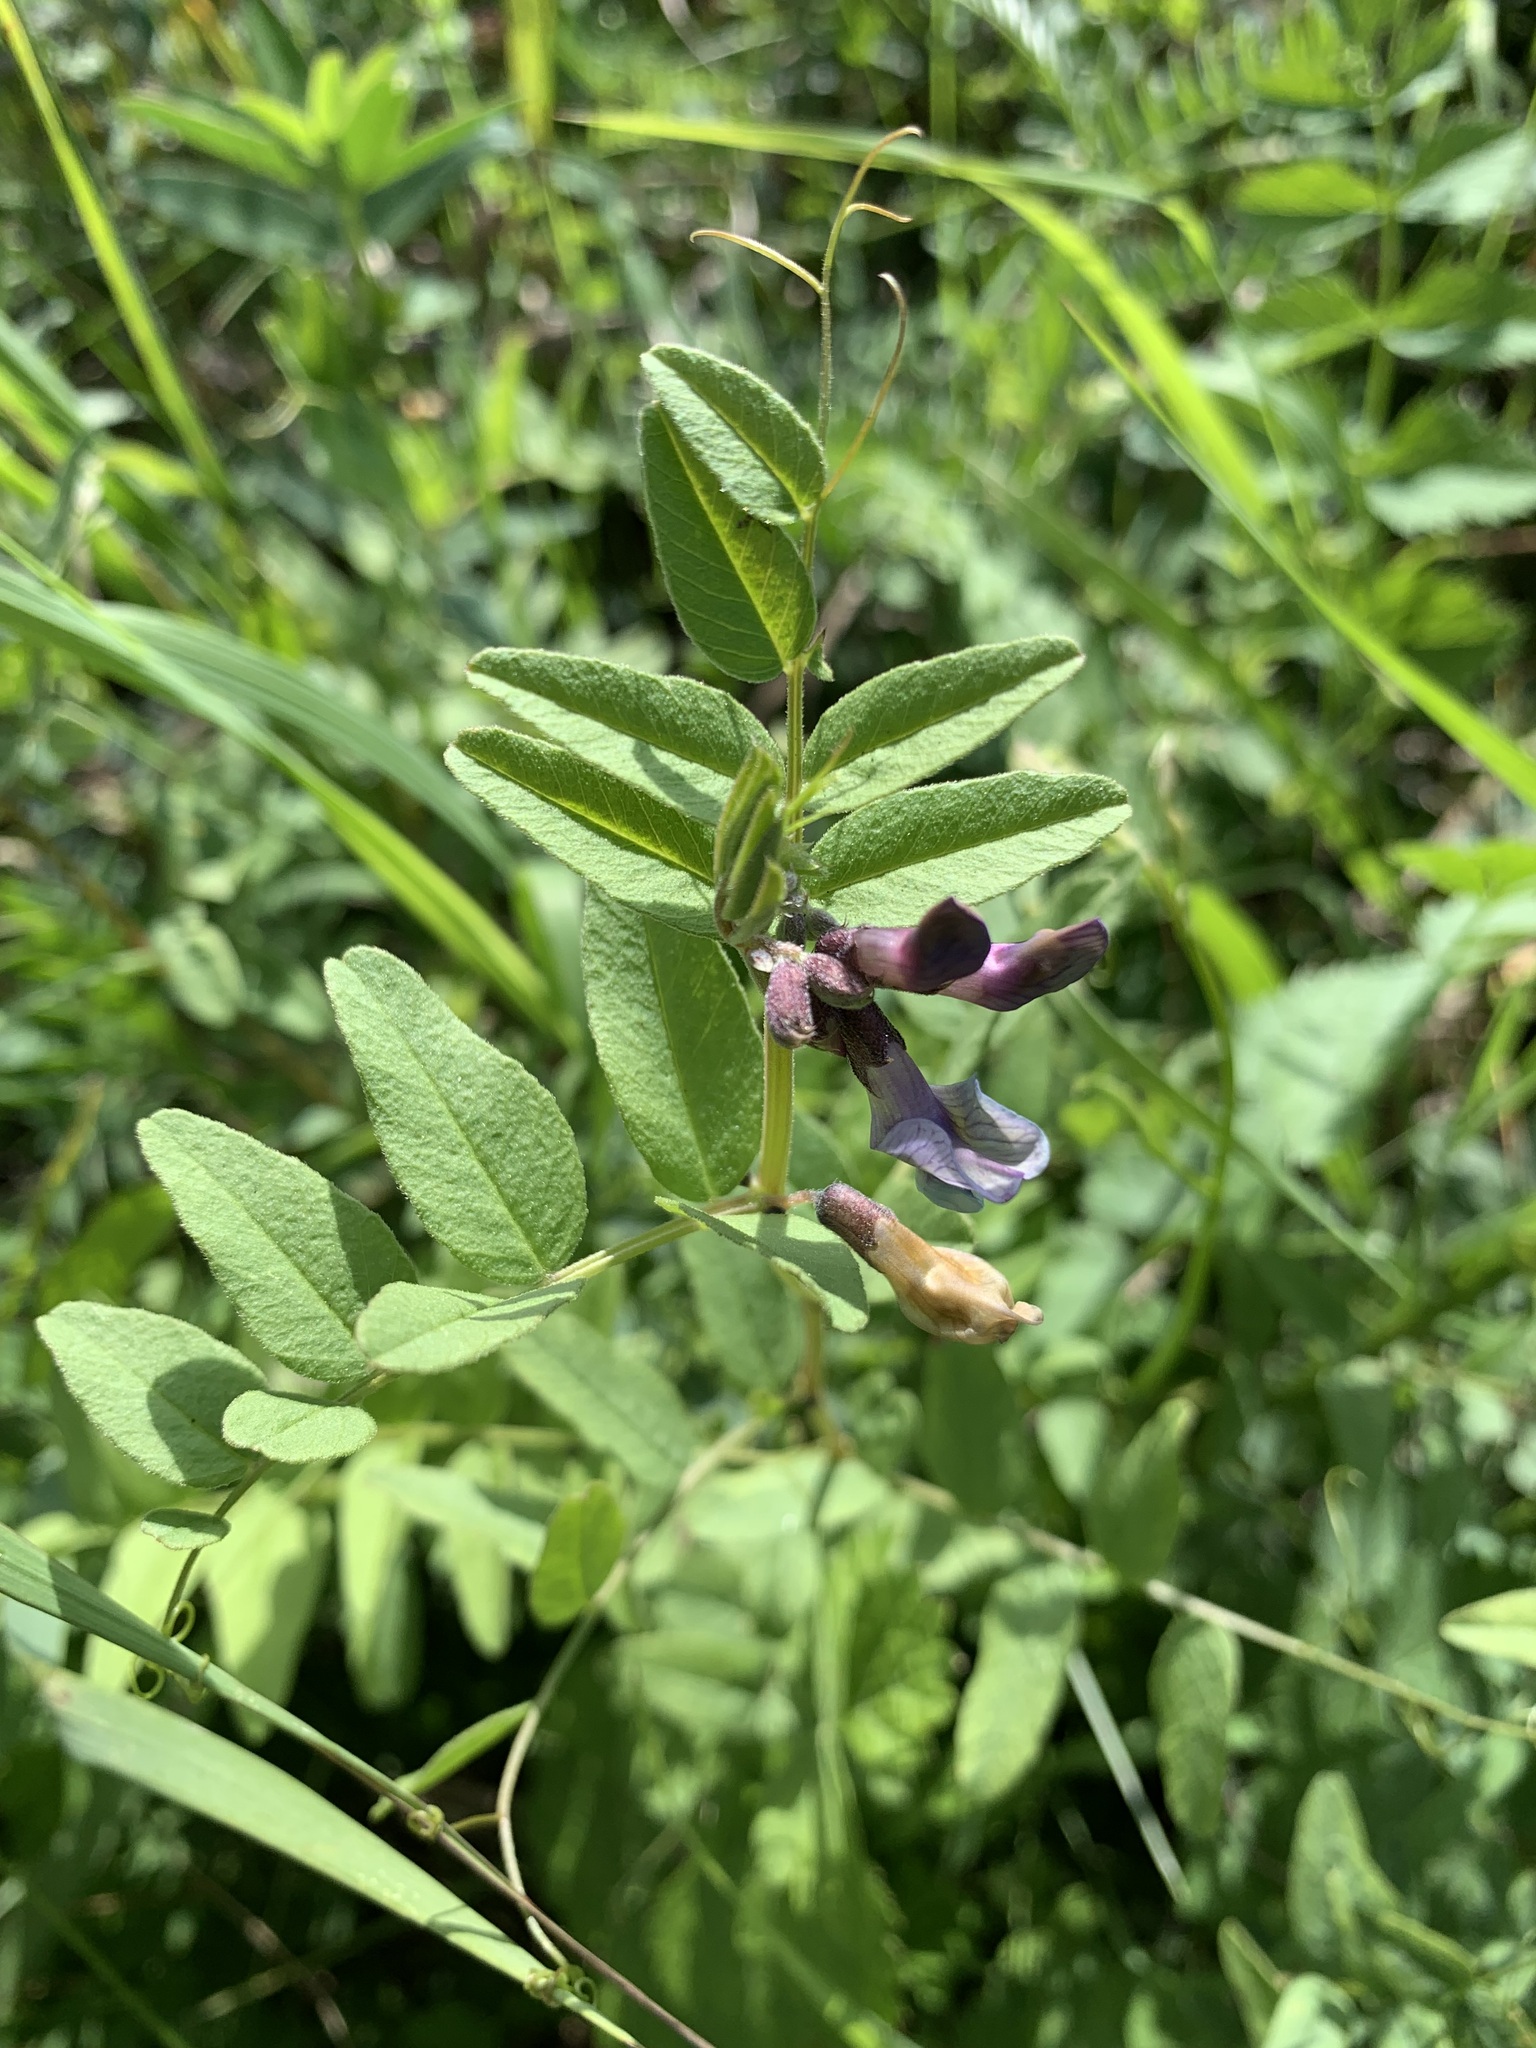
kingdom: Plantae
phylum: Tracheophyta
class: Magnoliopsida
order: Fabales
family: Fabaceae
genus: Vicia
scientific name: Vicia sepium
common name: Bush vetch
